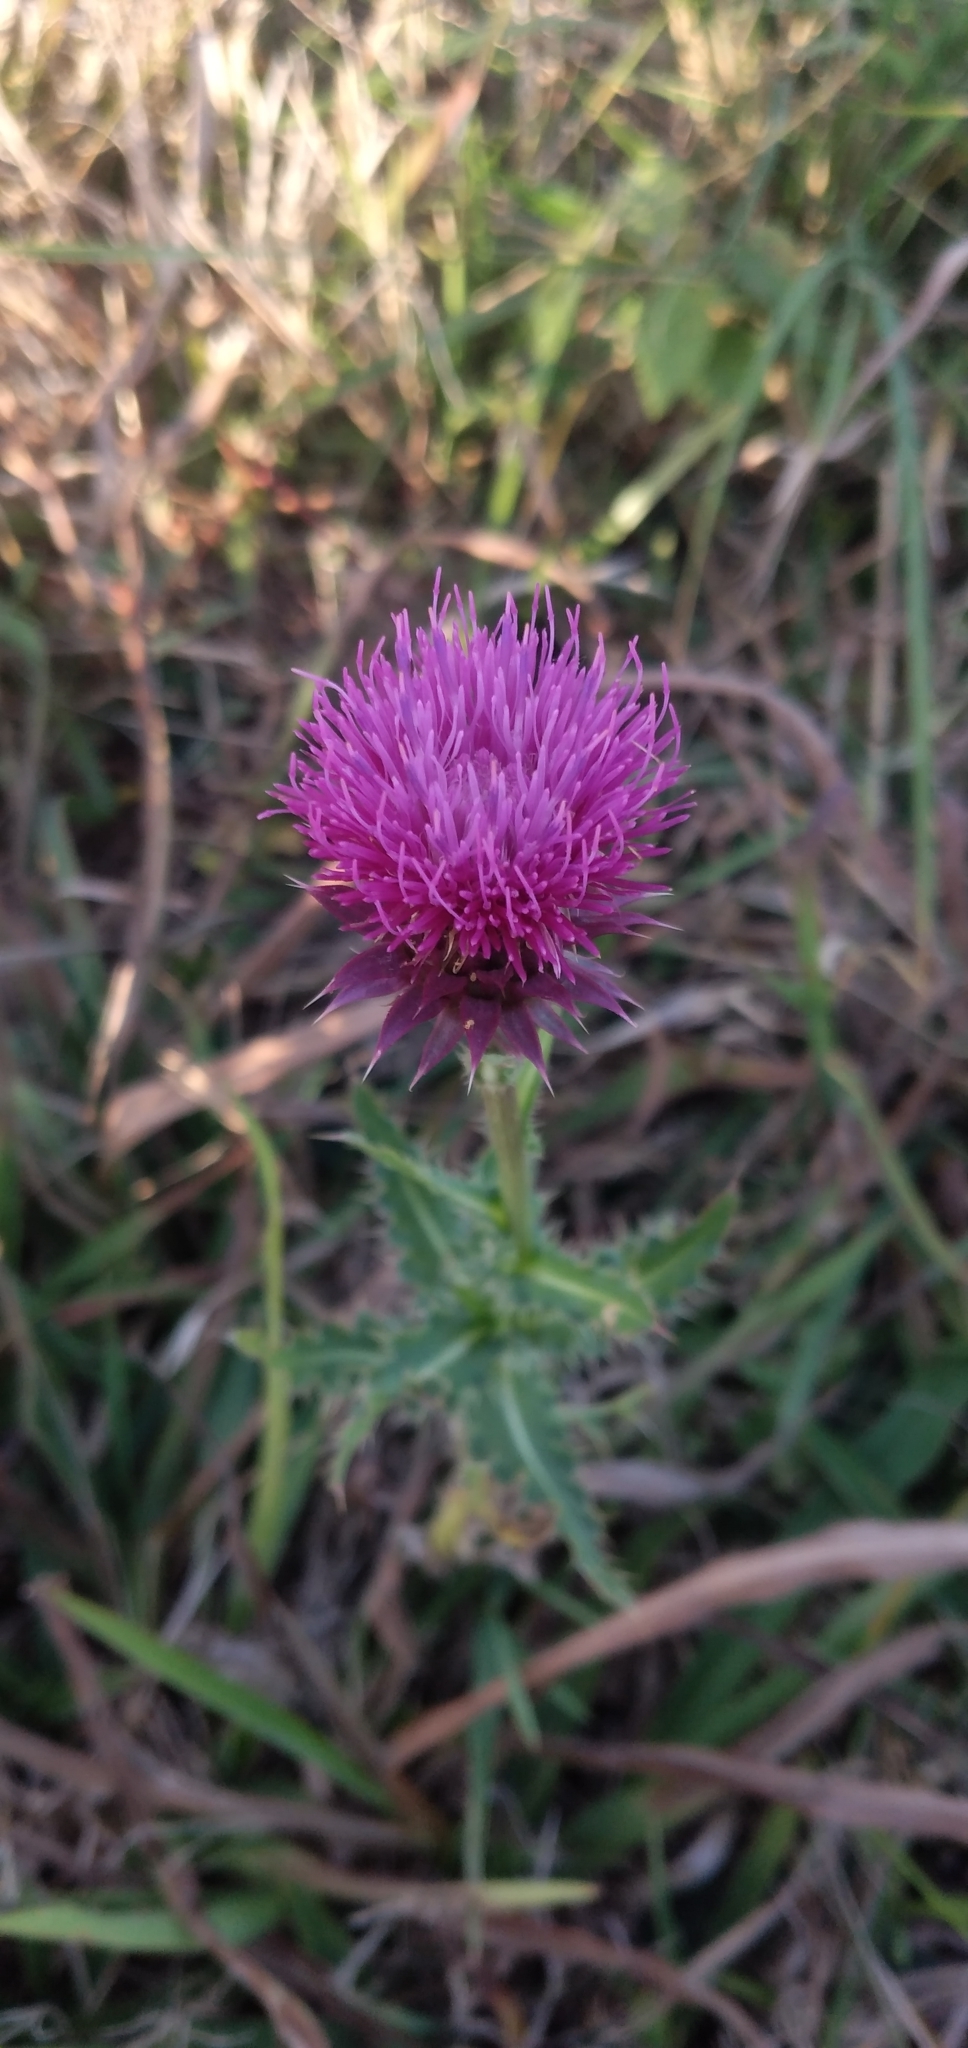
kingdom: Plantae
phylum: Tracheophyta
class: Magnoliopsida
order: Asterales
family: Asteraceae
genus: Carduus
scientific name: Carduus nutans
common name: Musk thistle
